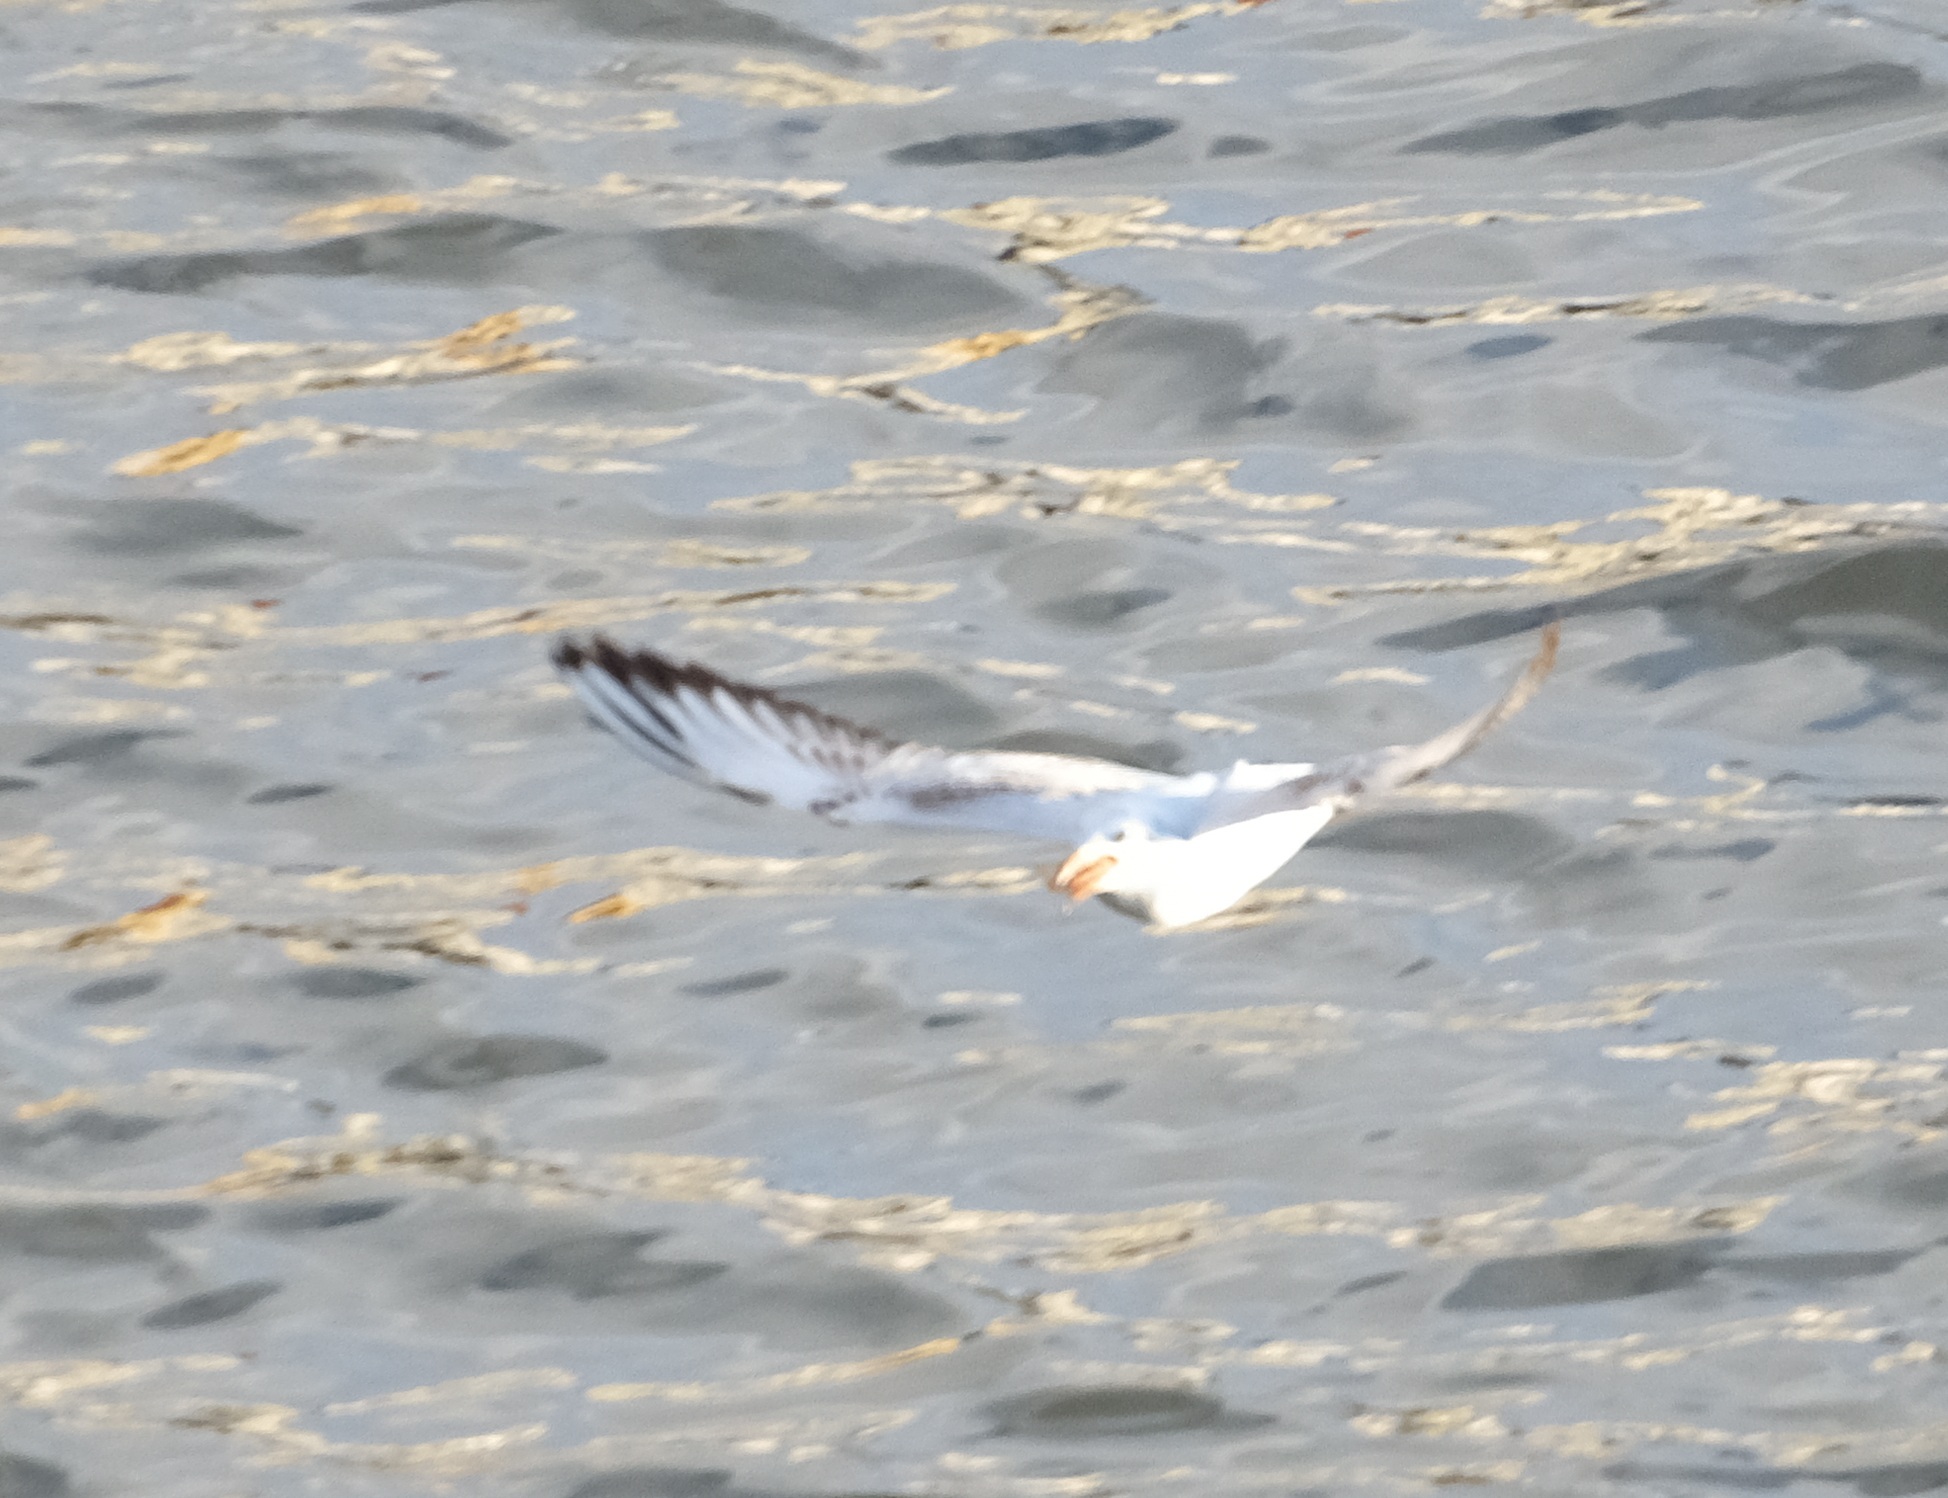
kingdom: Animalia
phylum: Chordata
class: Aves
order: Charadriiformes
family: Laridae
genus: Chroicocephalus
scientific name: Chroicocephalus ridibundus
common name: Black-headed gull
